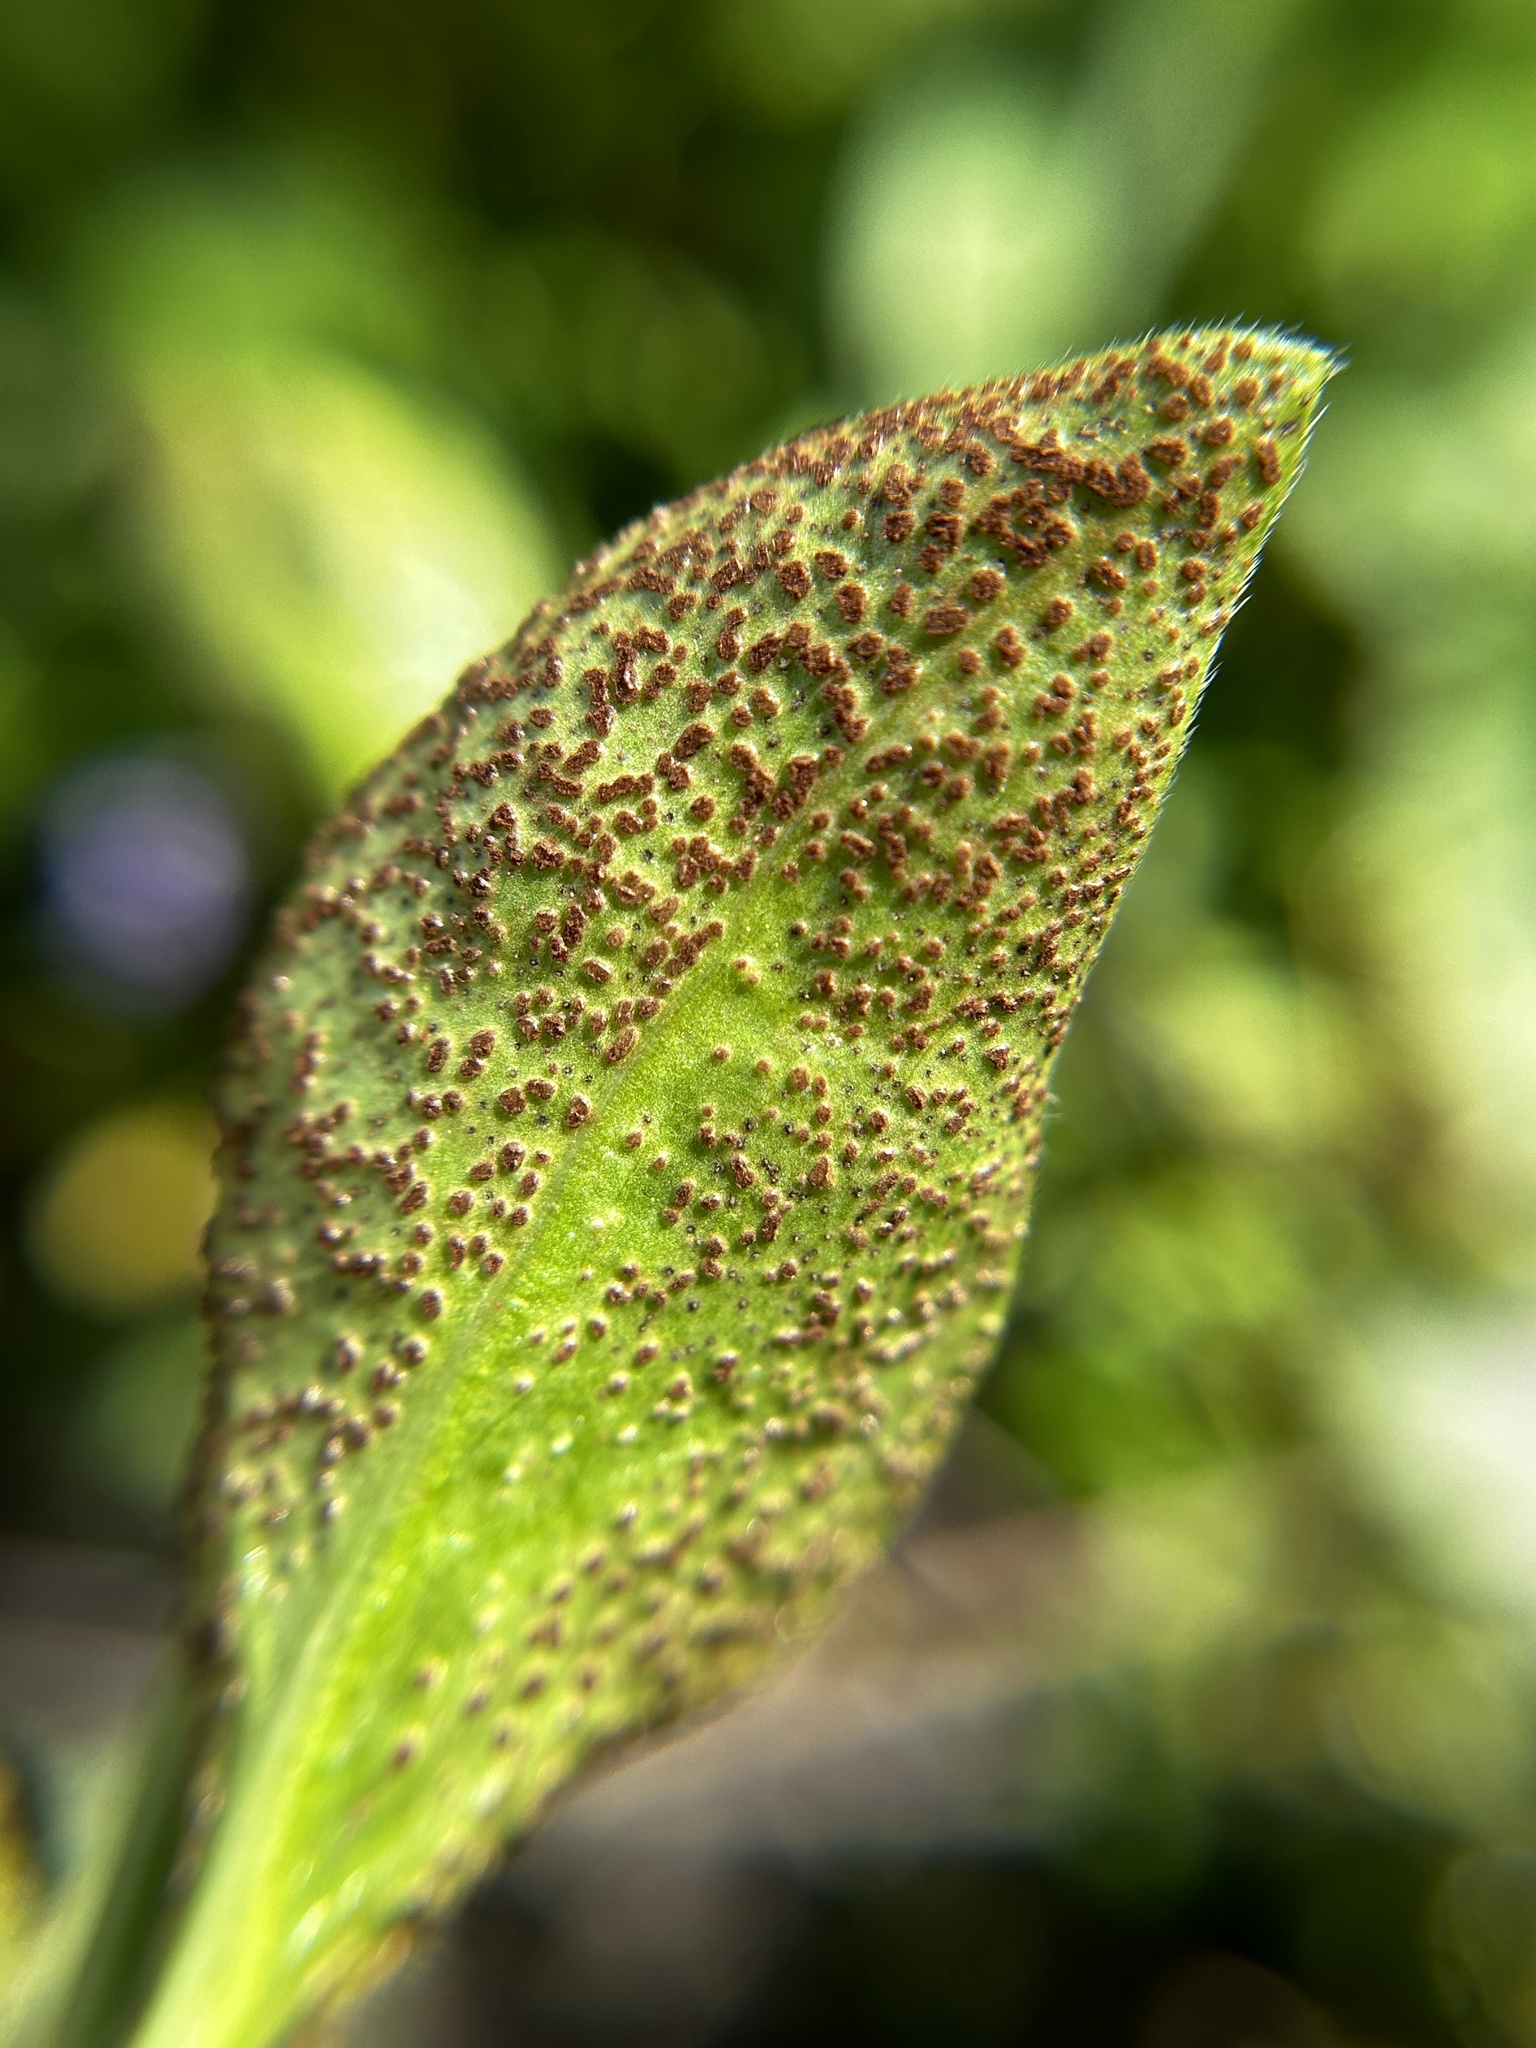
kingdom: Fungi
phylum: Basidiomycota
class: Pucciniomycetes
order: Pucciniales
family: Pucciniaceae
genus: Puccinia
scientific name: Puccinia vincae
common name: Periwinkle rust
